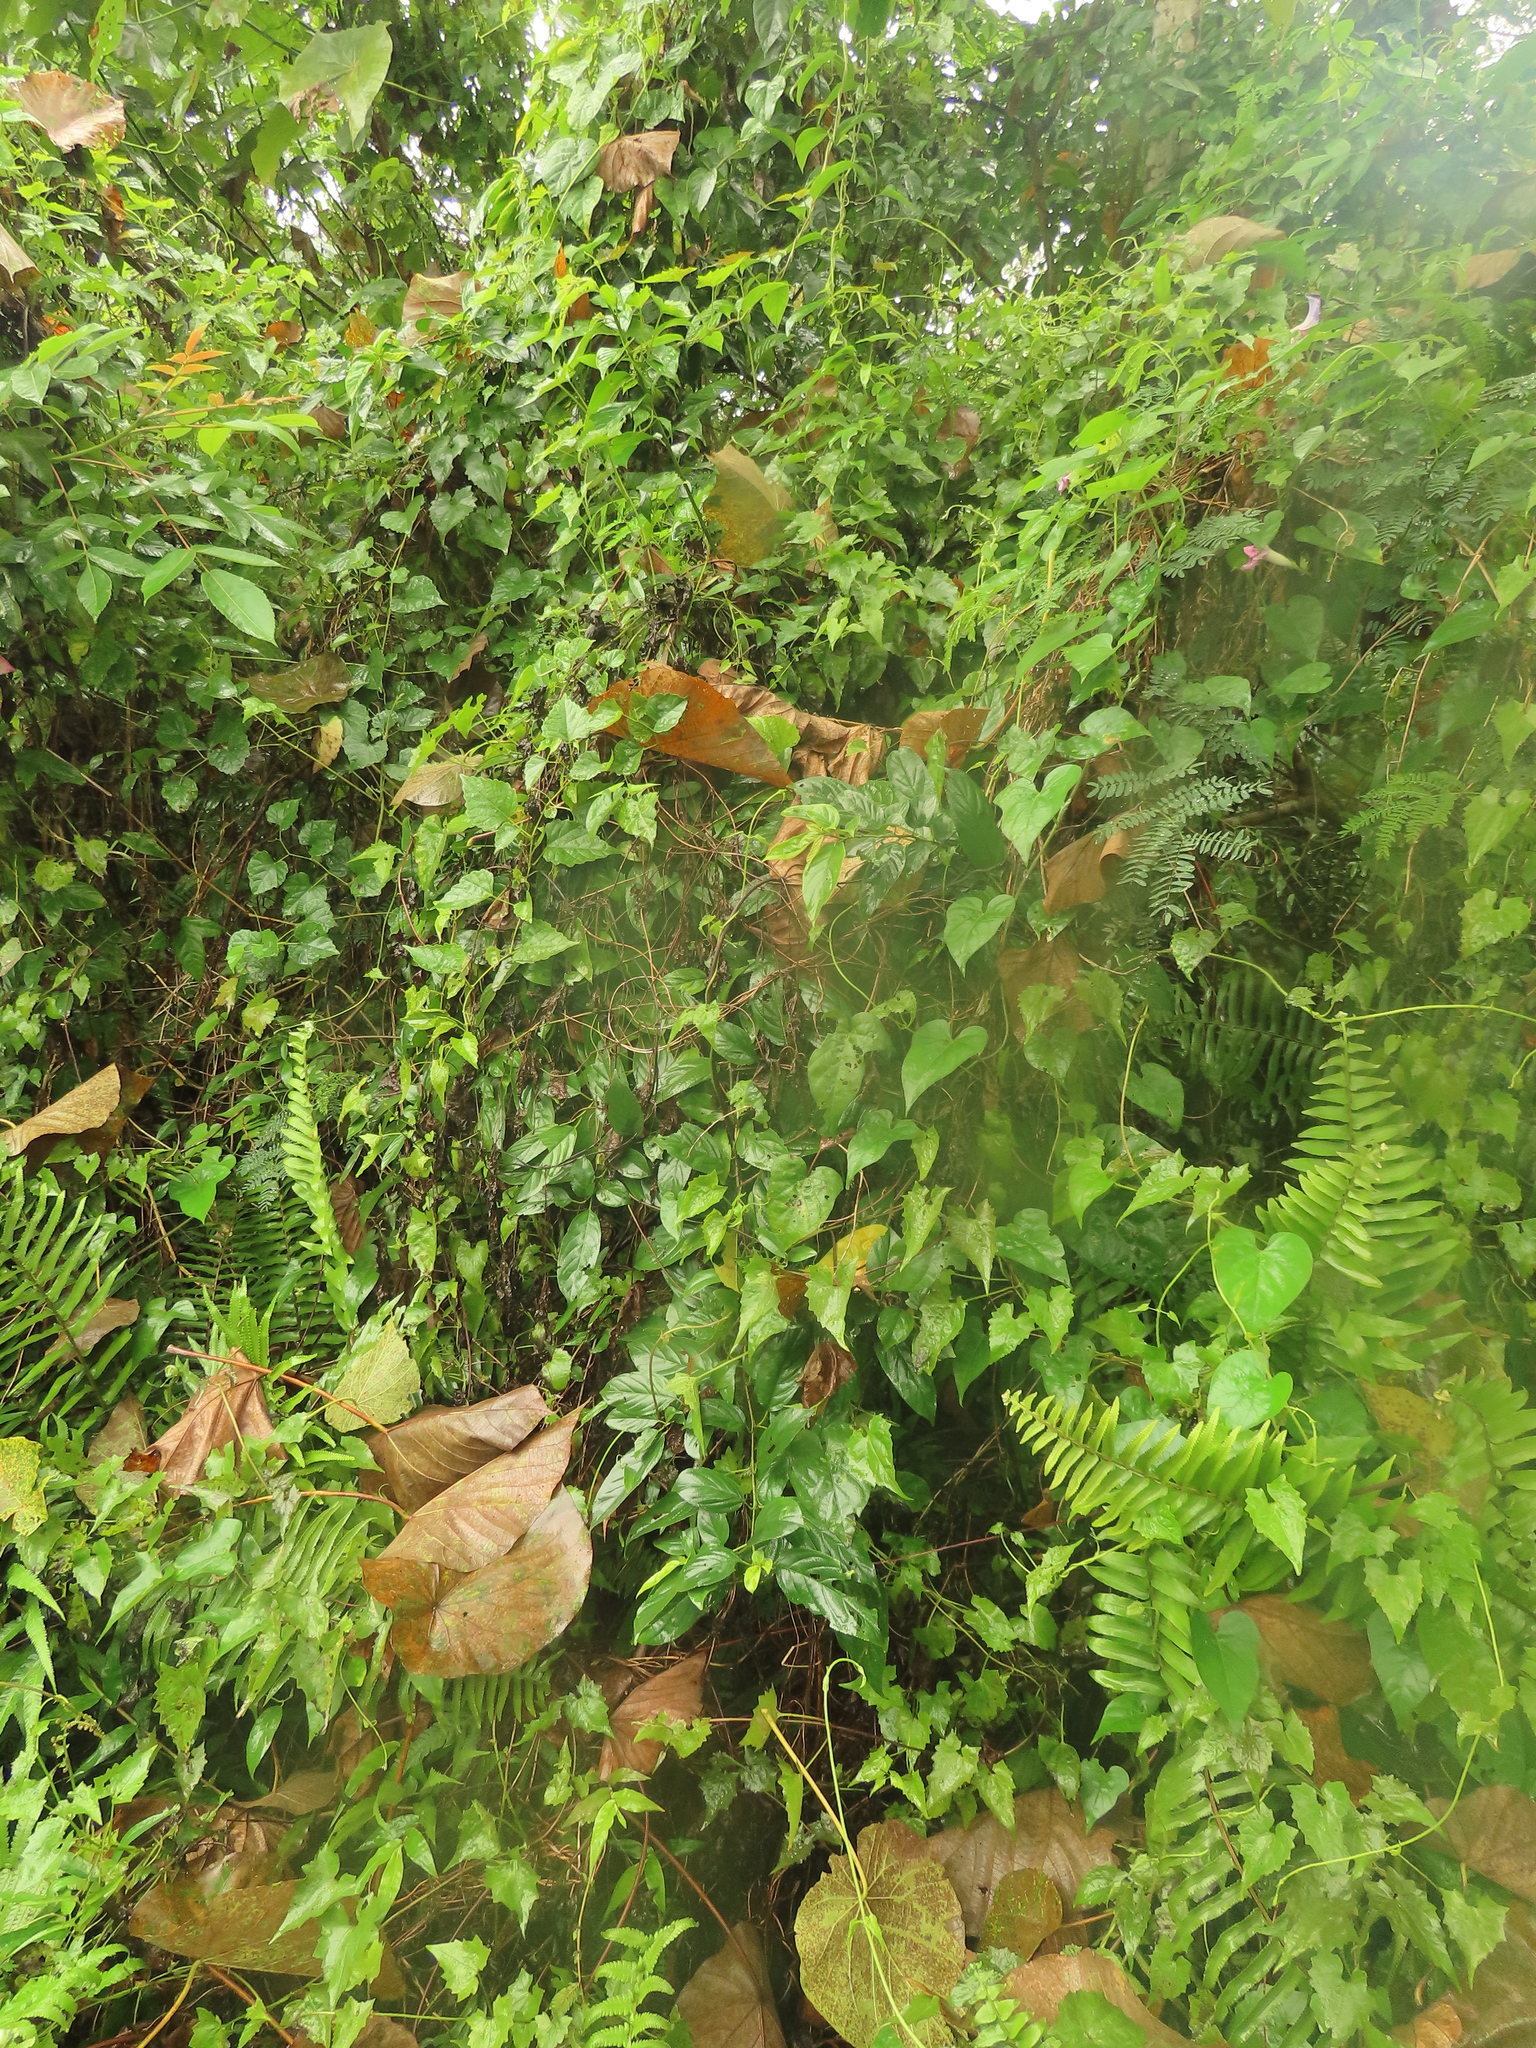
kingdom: Plantae
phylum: Tracheophyta
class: Magnoliopsida
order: Rosales
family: Rhamnaceae
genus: Rhamnus
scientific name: Rhamnus formosana
